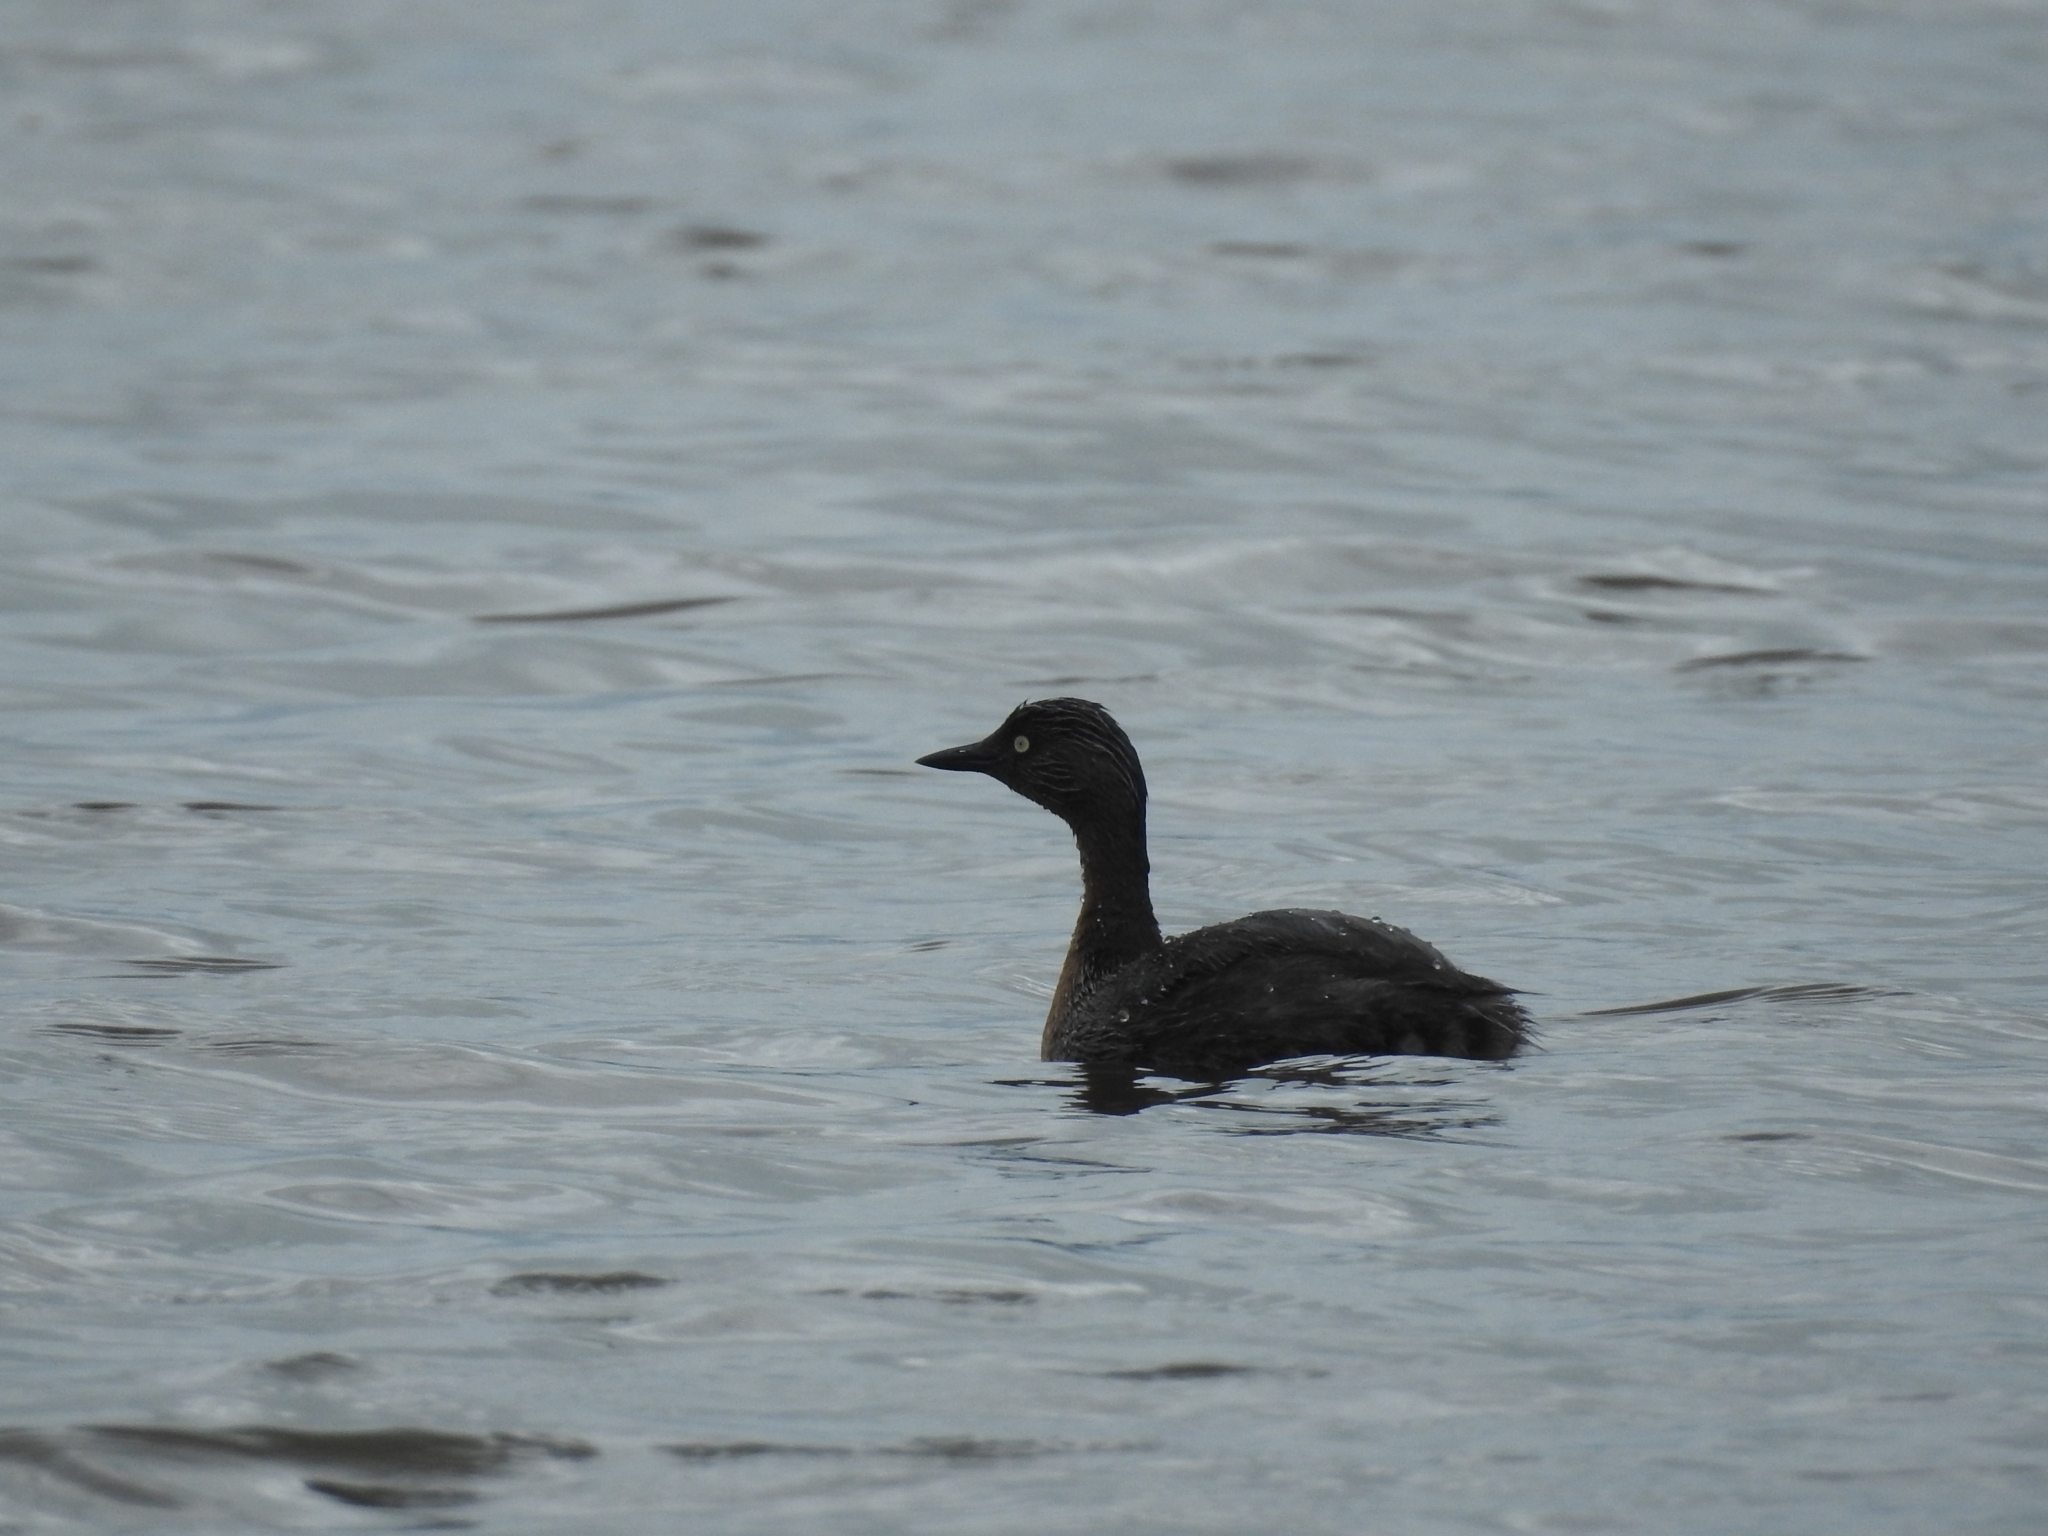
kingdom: Animalia
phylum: Chordata
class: Aves
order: Podicipediformes
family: Podicipedidae
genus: Poliocephalus
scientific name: Poliocephalus rufopectus
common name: New zealand grebe
